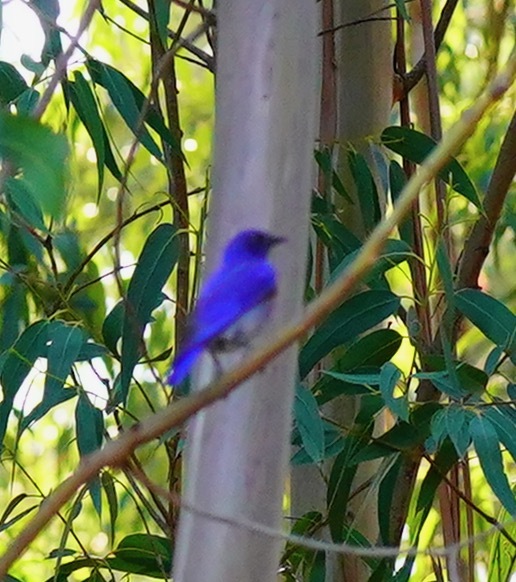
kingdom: Animalia
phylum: Chordata
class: Aves
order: Passeriformes
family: Turdidae
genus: Sialia
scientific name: Sialia mexicana
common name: Western bluebird
